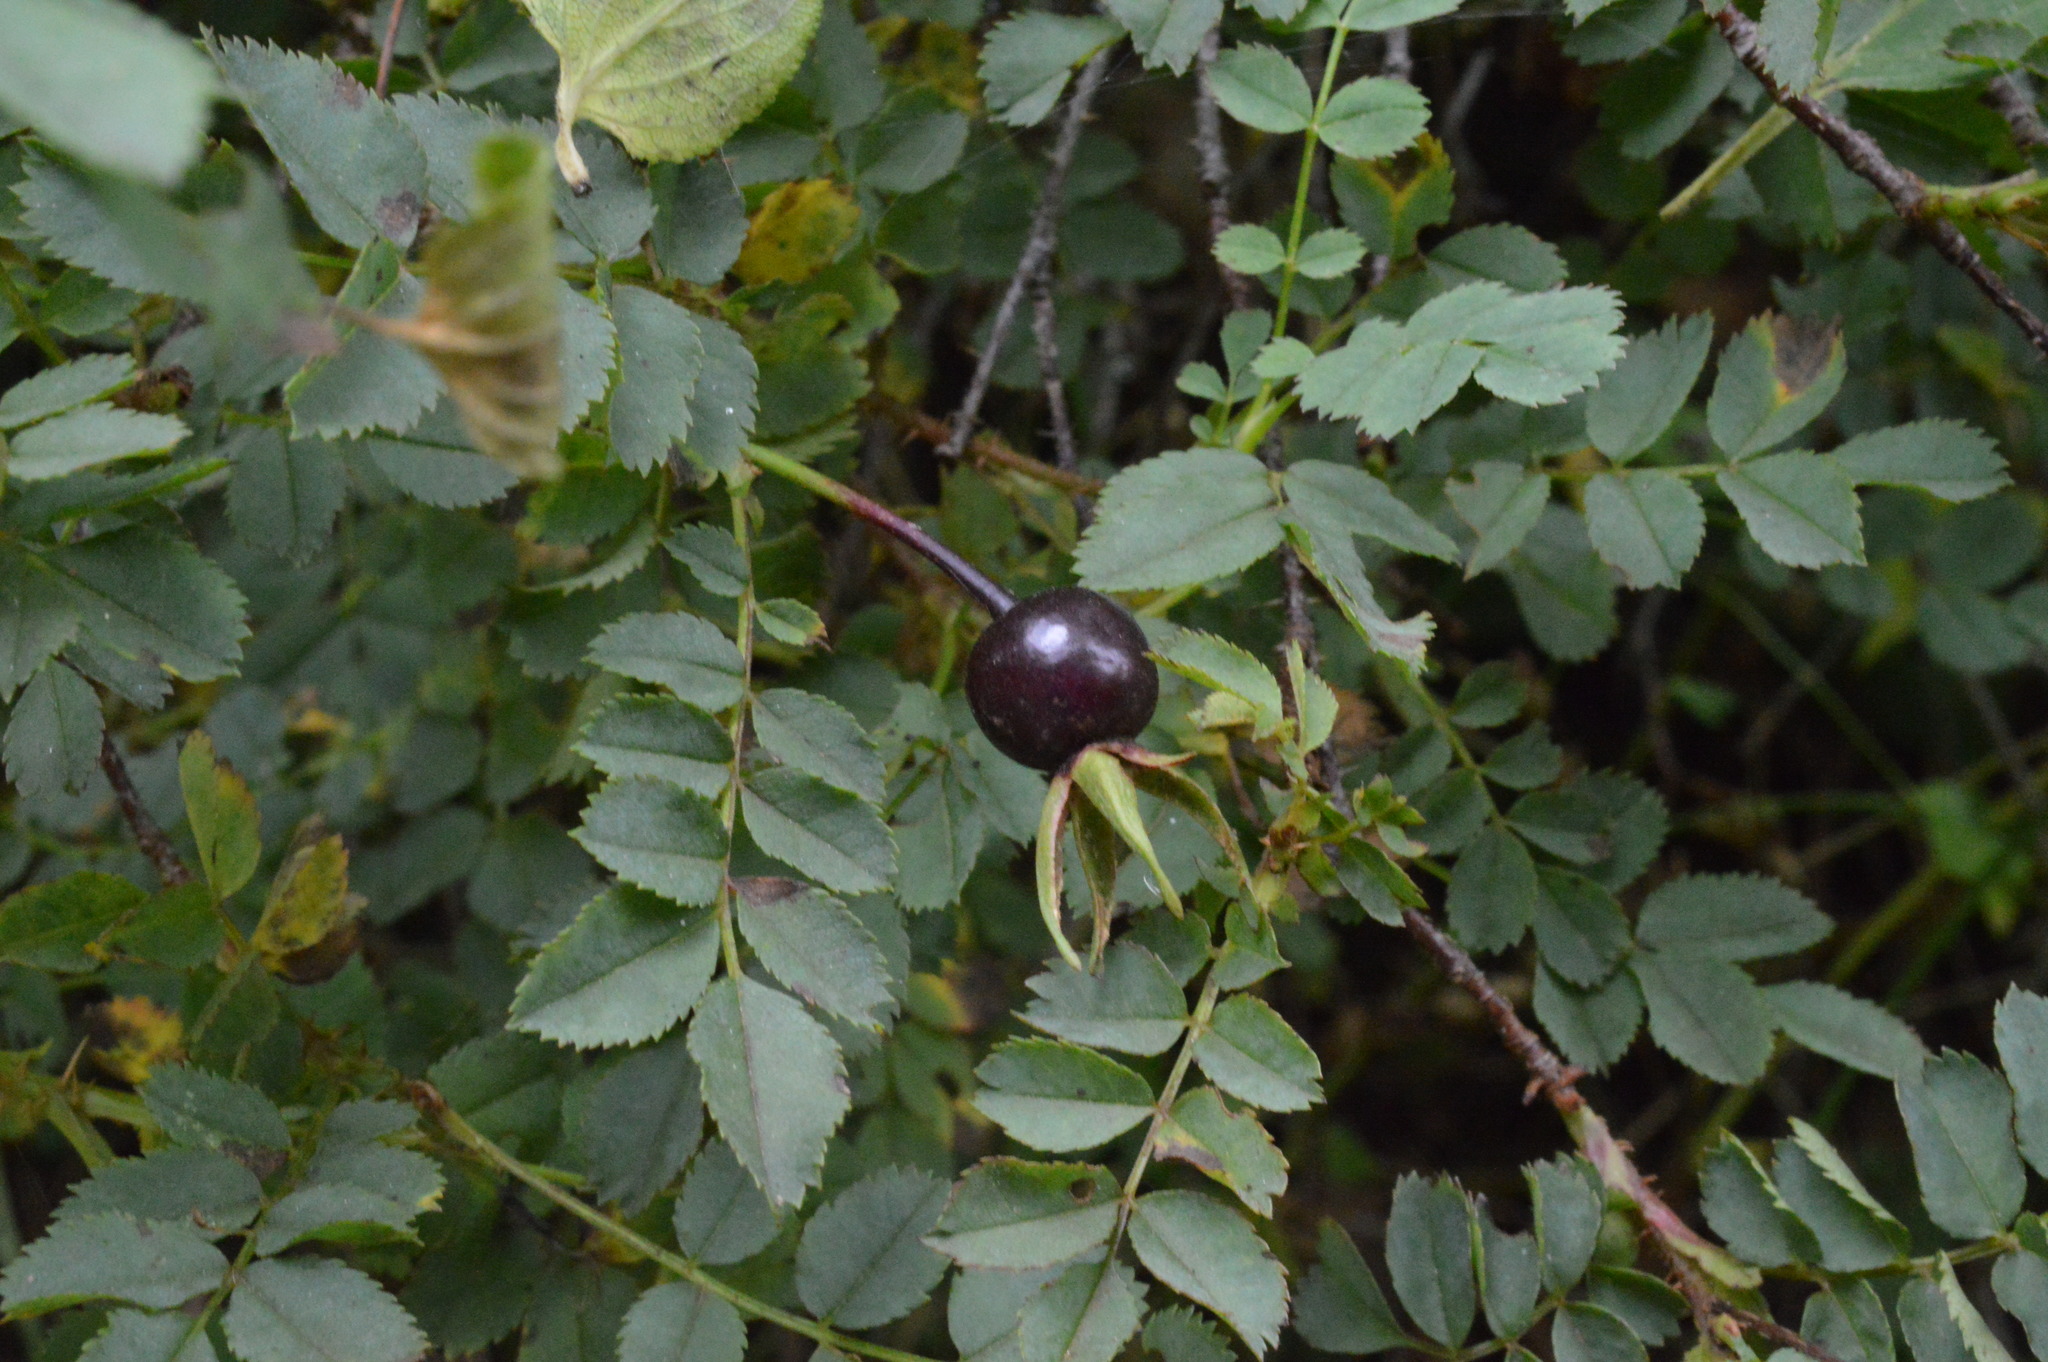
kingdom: Plantae
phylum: Tracheophyta
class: Magnoliopsida
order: Rosales
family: Rosaceae
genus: Rosa
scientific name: Rosa spinosissima
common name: Burnet rose
